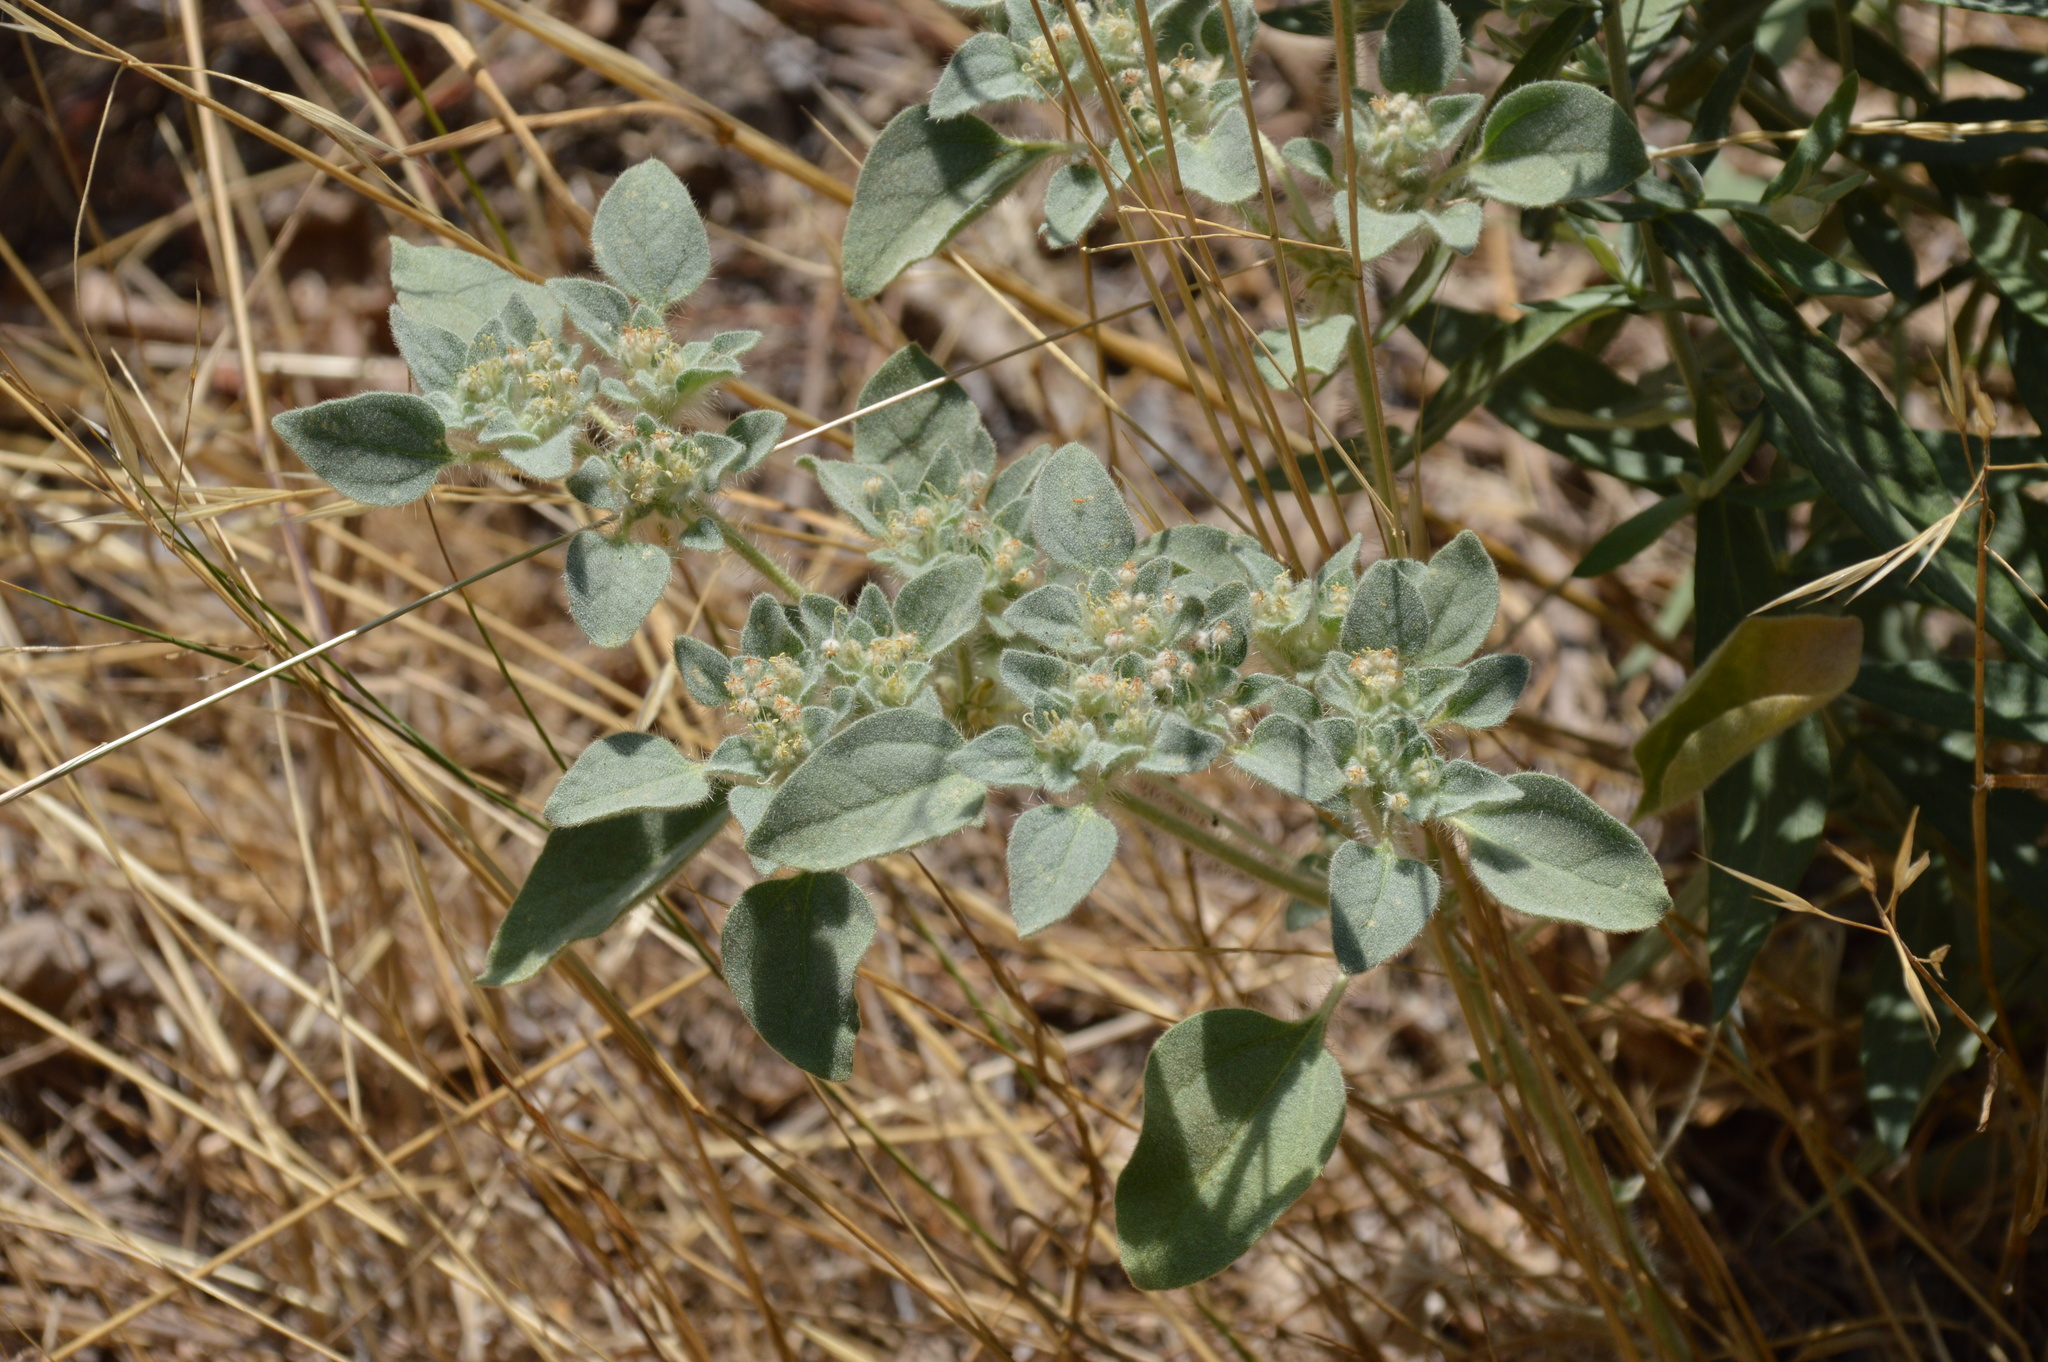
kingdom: Plantae
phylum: Tracheophyta
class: Magnoliopsida
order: Malpighiales
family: Euphorbiaceae
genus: Croton
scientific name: Croton setiger
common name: Dove weed
